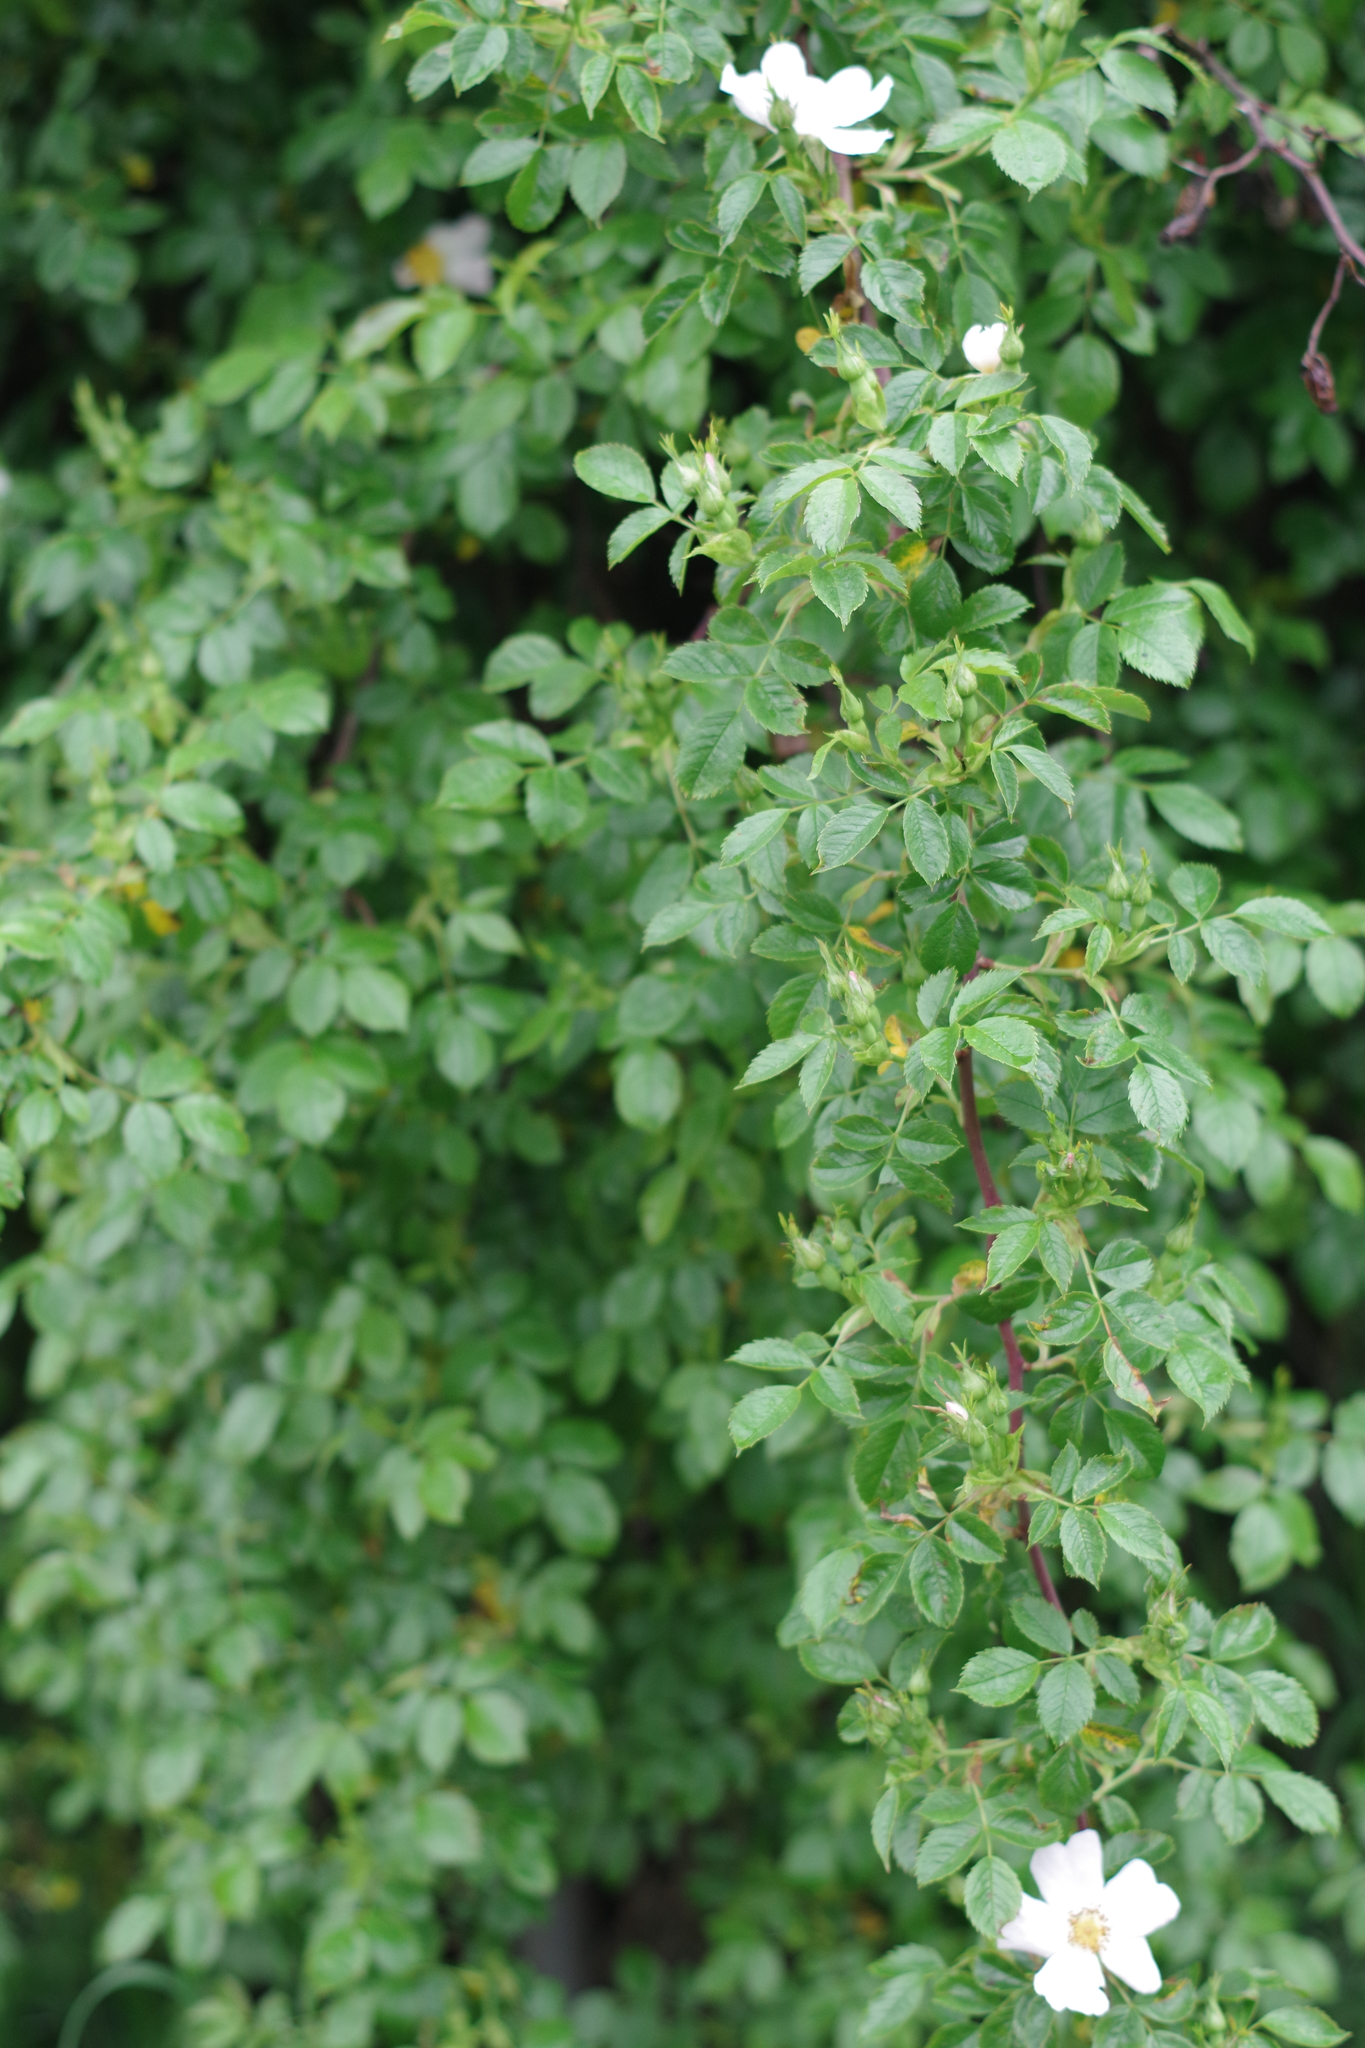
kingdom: Plantae
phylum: Tracheophyta
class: Magnoliopsida
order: Rosales
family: Rosaceae
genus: Rosa
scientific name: Rosa canina
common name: Dog rose
